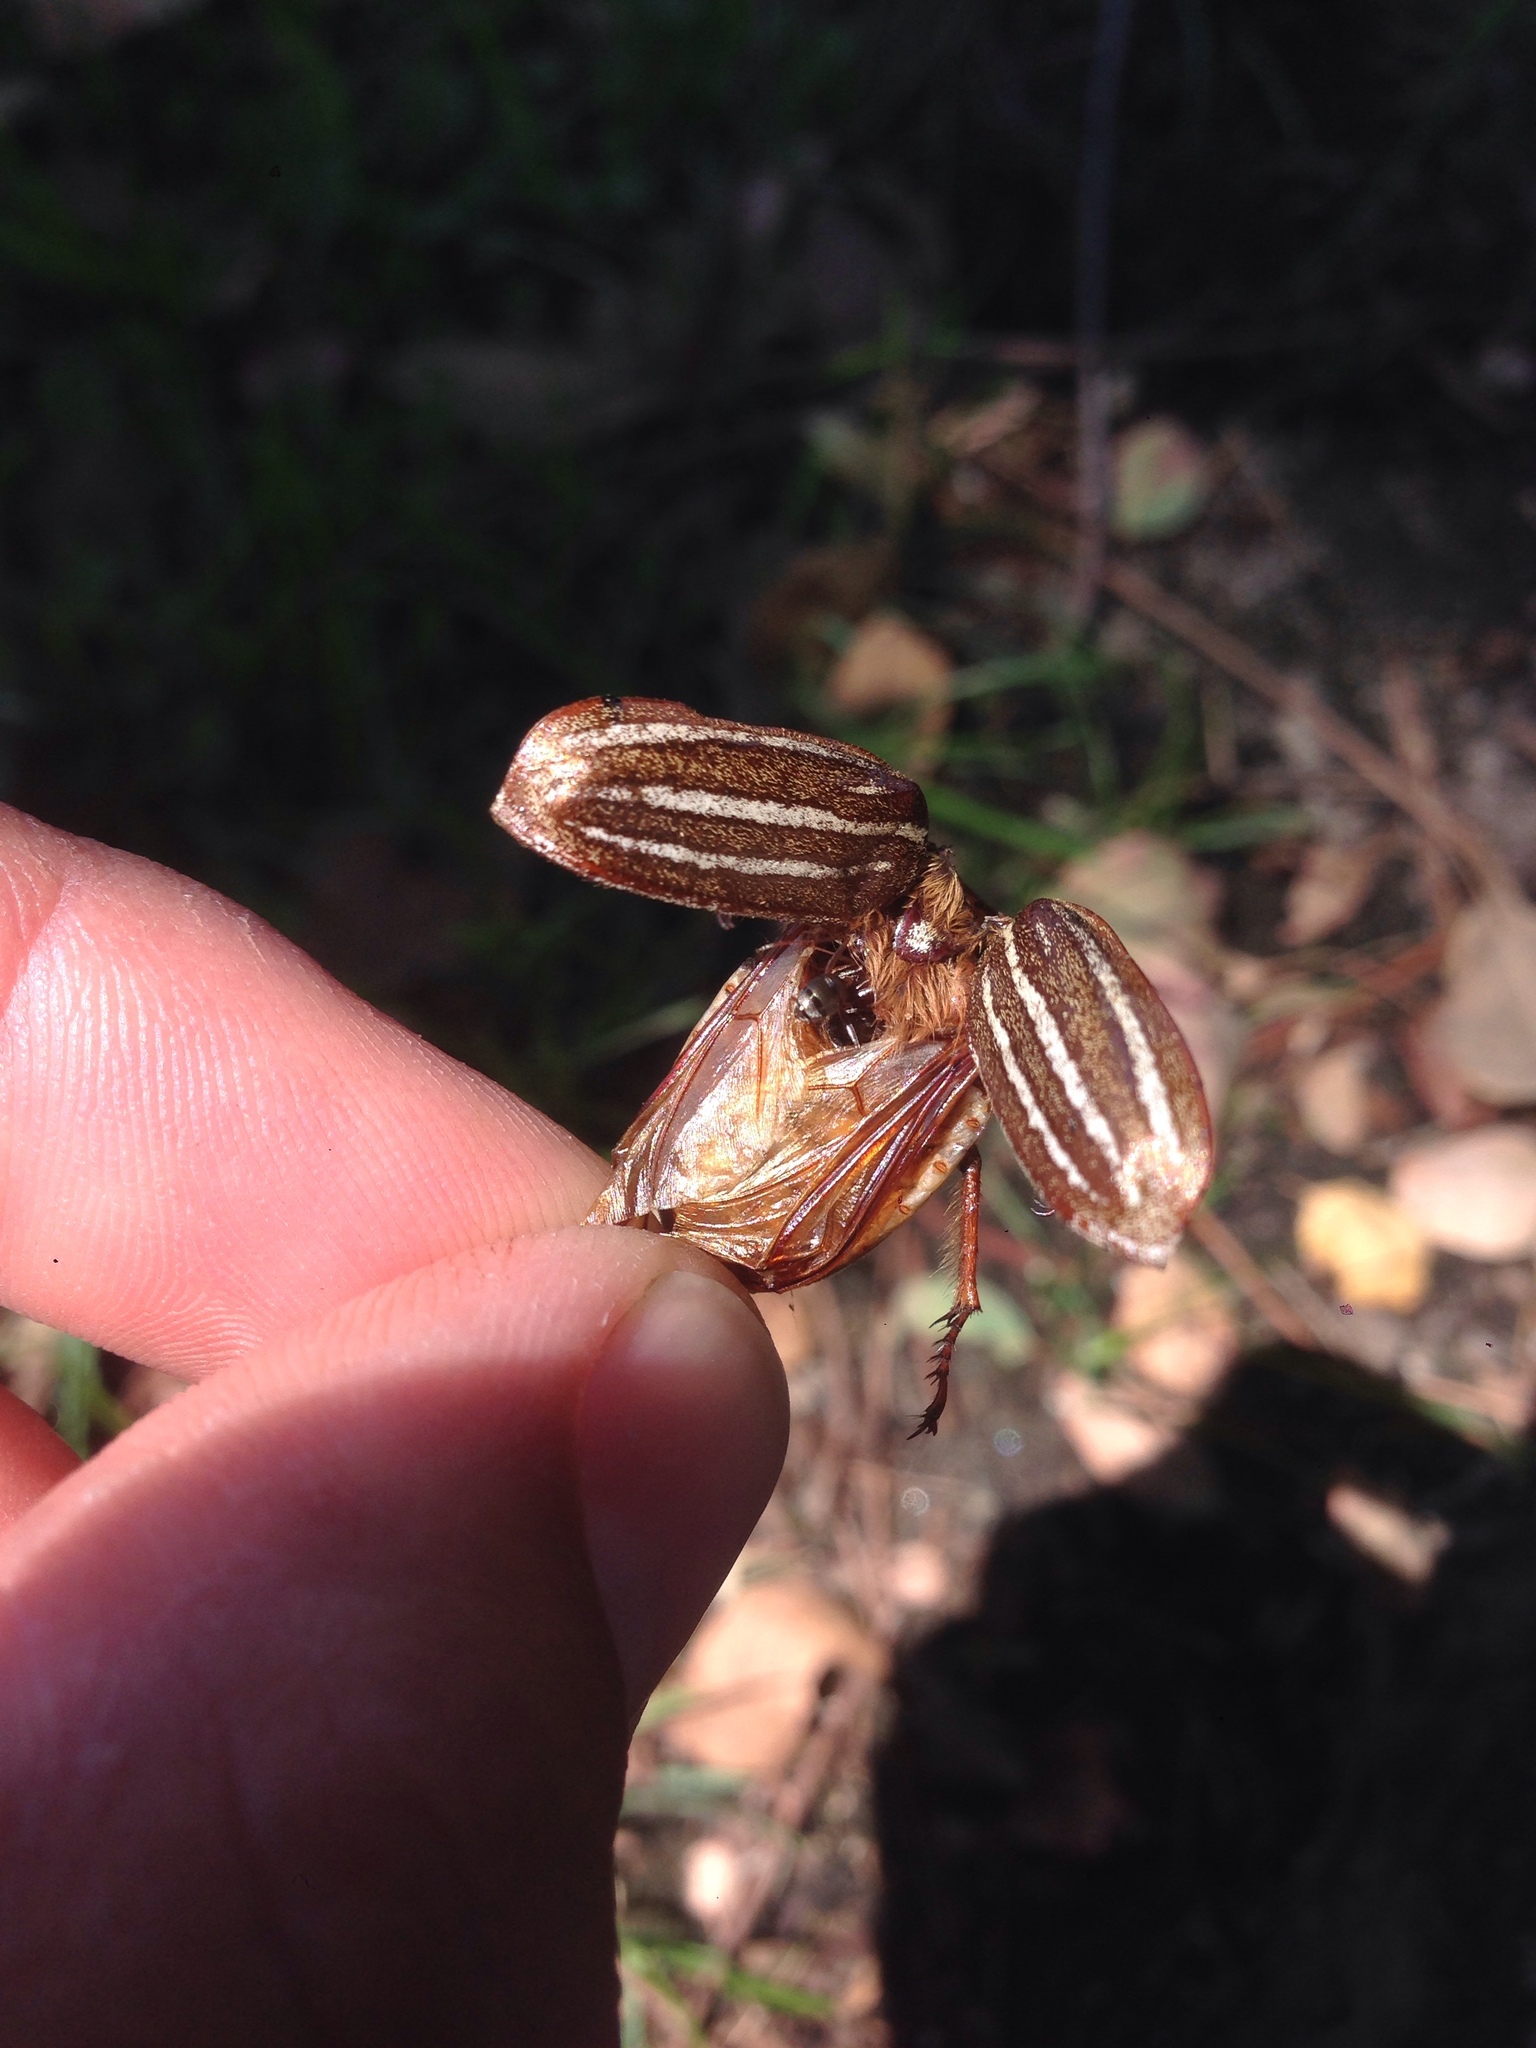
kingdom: Animalia
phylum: Arthropoda
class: Insecta
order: Coleoptera
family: Scarabaeidae
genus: Polyphylla
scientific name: Polyphylla decemlineata
